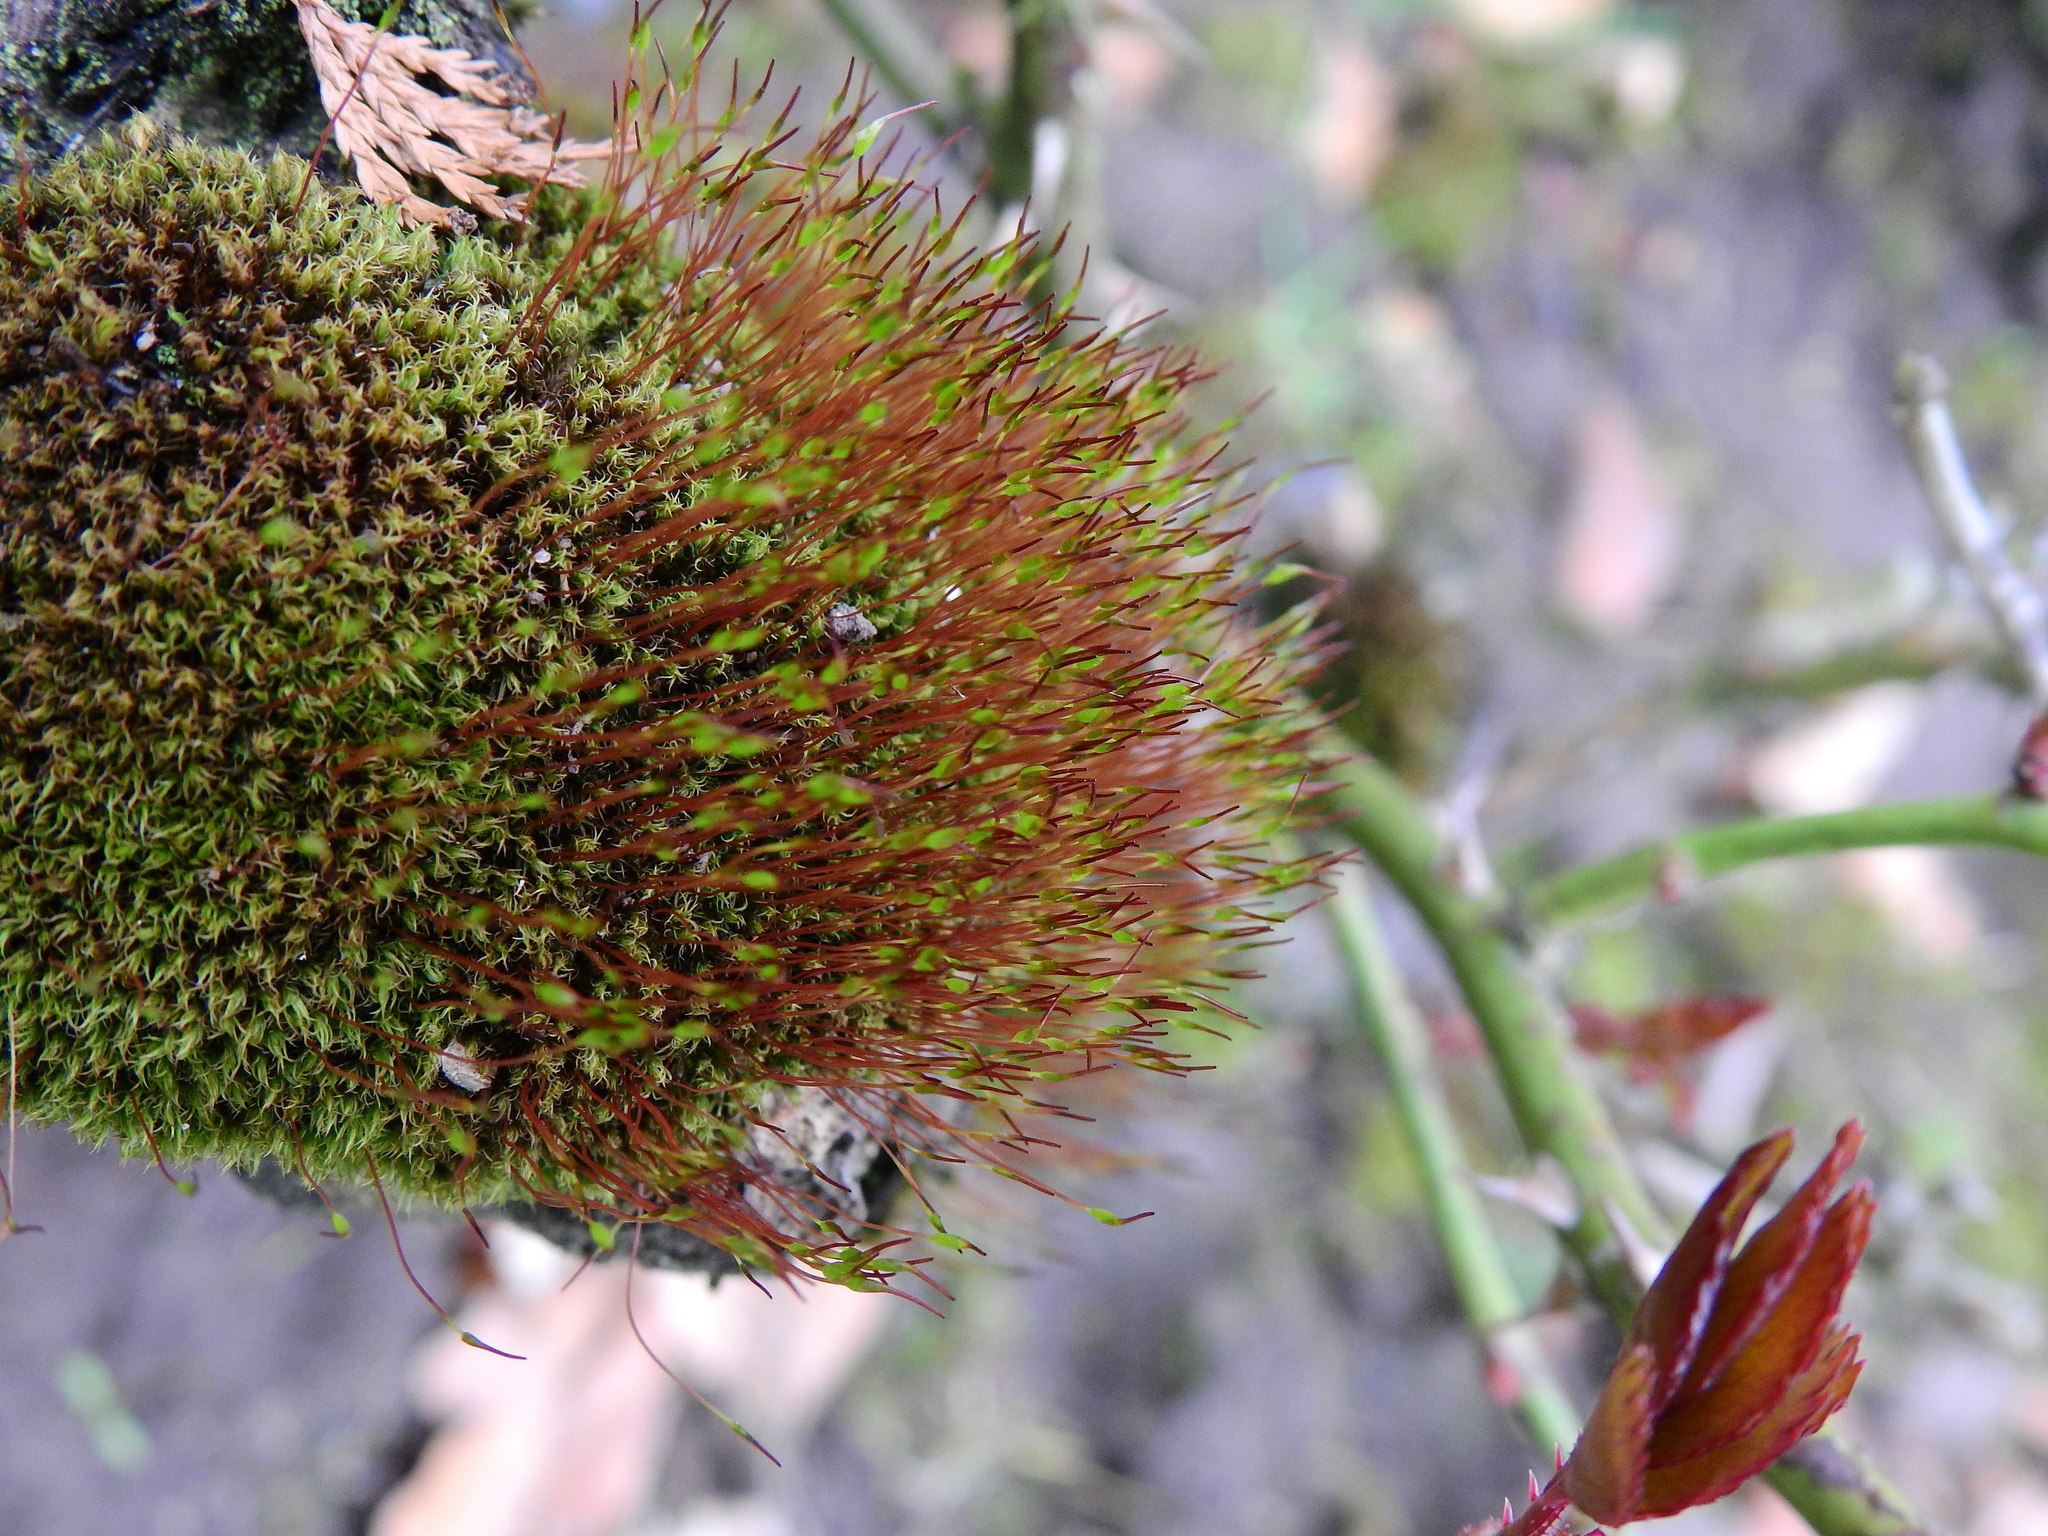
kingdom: Plantae
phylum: Bryophyta
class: Bryopsida
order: Dicranales
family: Ditrichaceae
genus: Ceratodon
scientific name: Ceratodon purpureus
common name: Redshank
